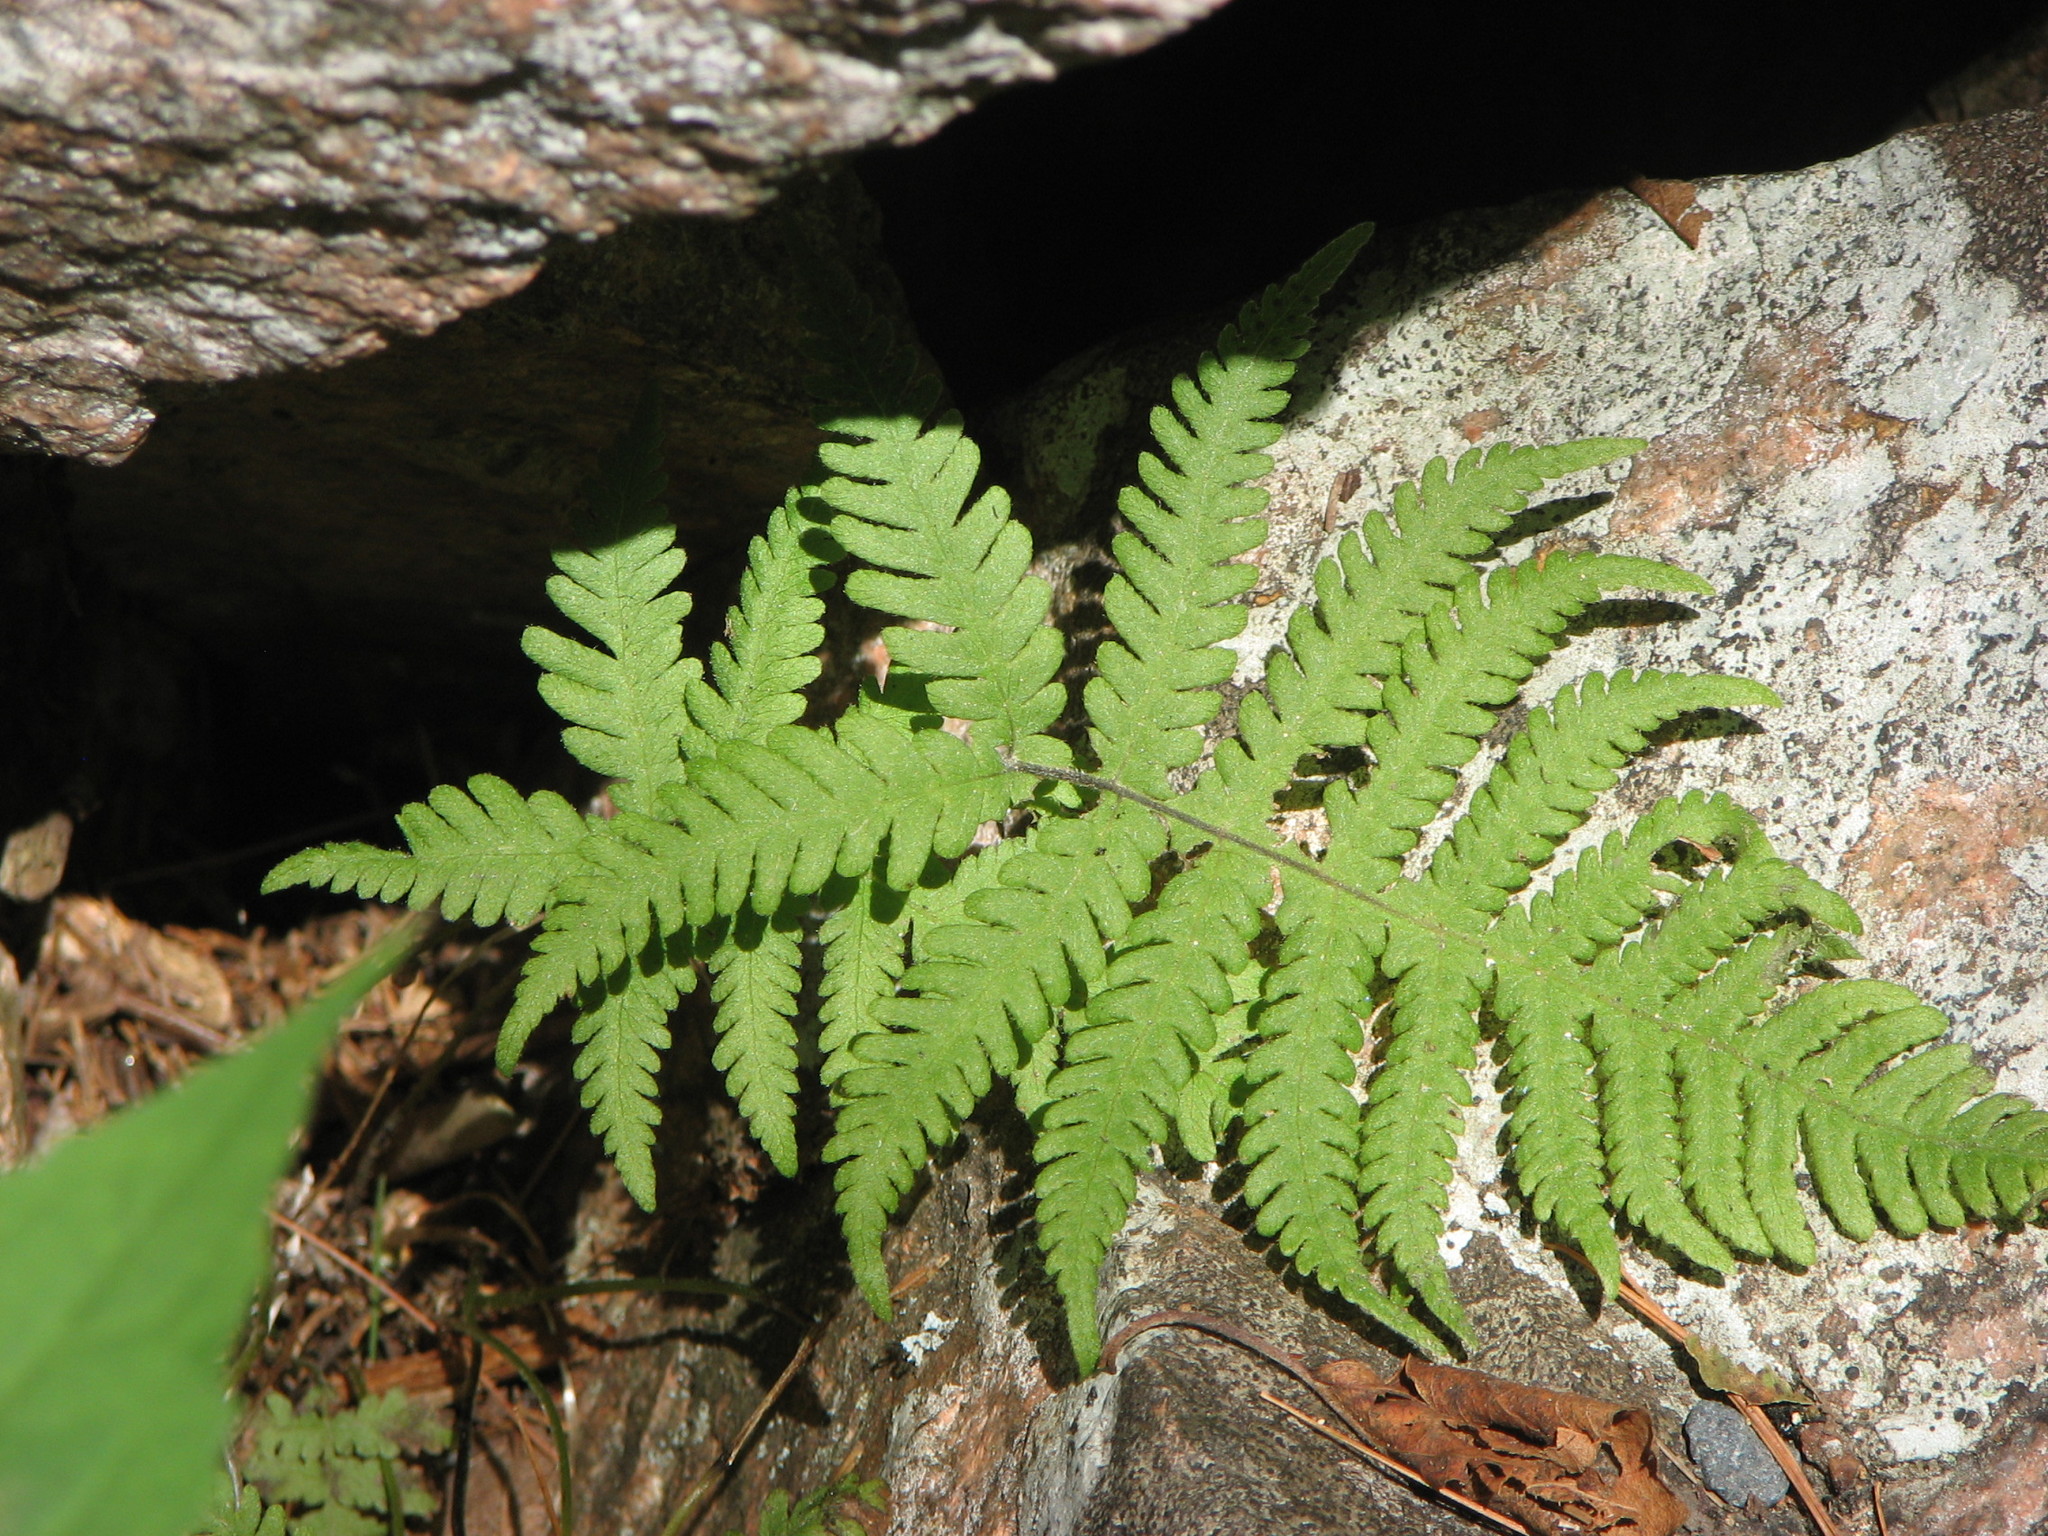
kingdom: Plantae
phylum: Tracheophyta
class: Polypodiopsida
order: Polypodiales
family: Thelypteridaceae
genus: Phegopteris
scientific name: Phegopteris connectilis
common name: Beech fern
